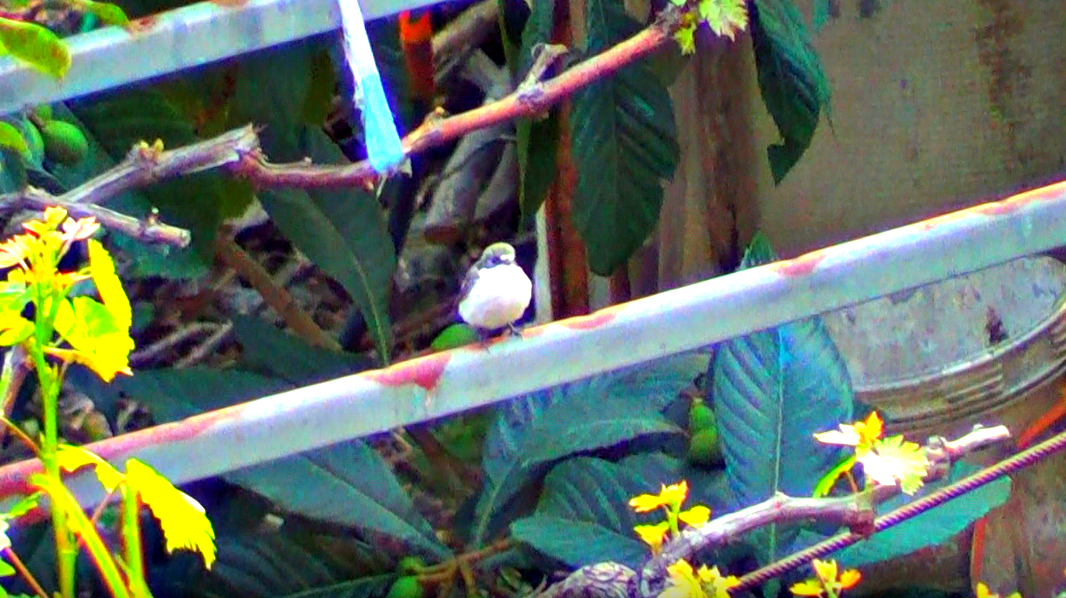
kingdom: Animalia
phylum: Chordata
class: Aves
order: Passeriformes
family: Muscicapidae
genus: Ficedula
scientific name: Ficedula hypoleuca
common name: European pied flycatcher
